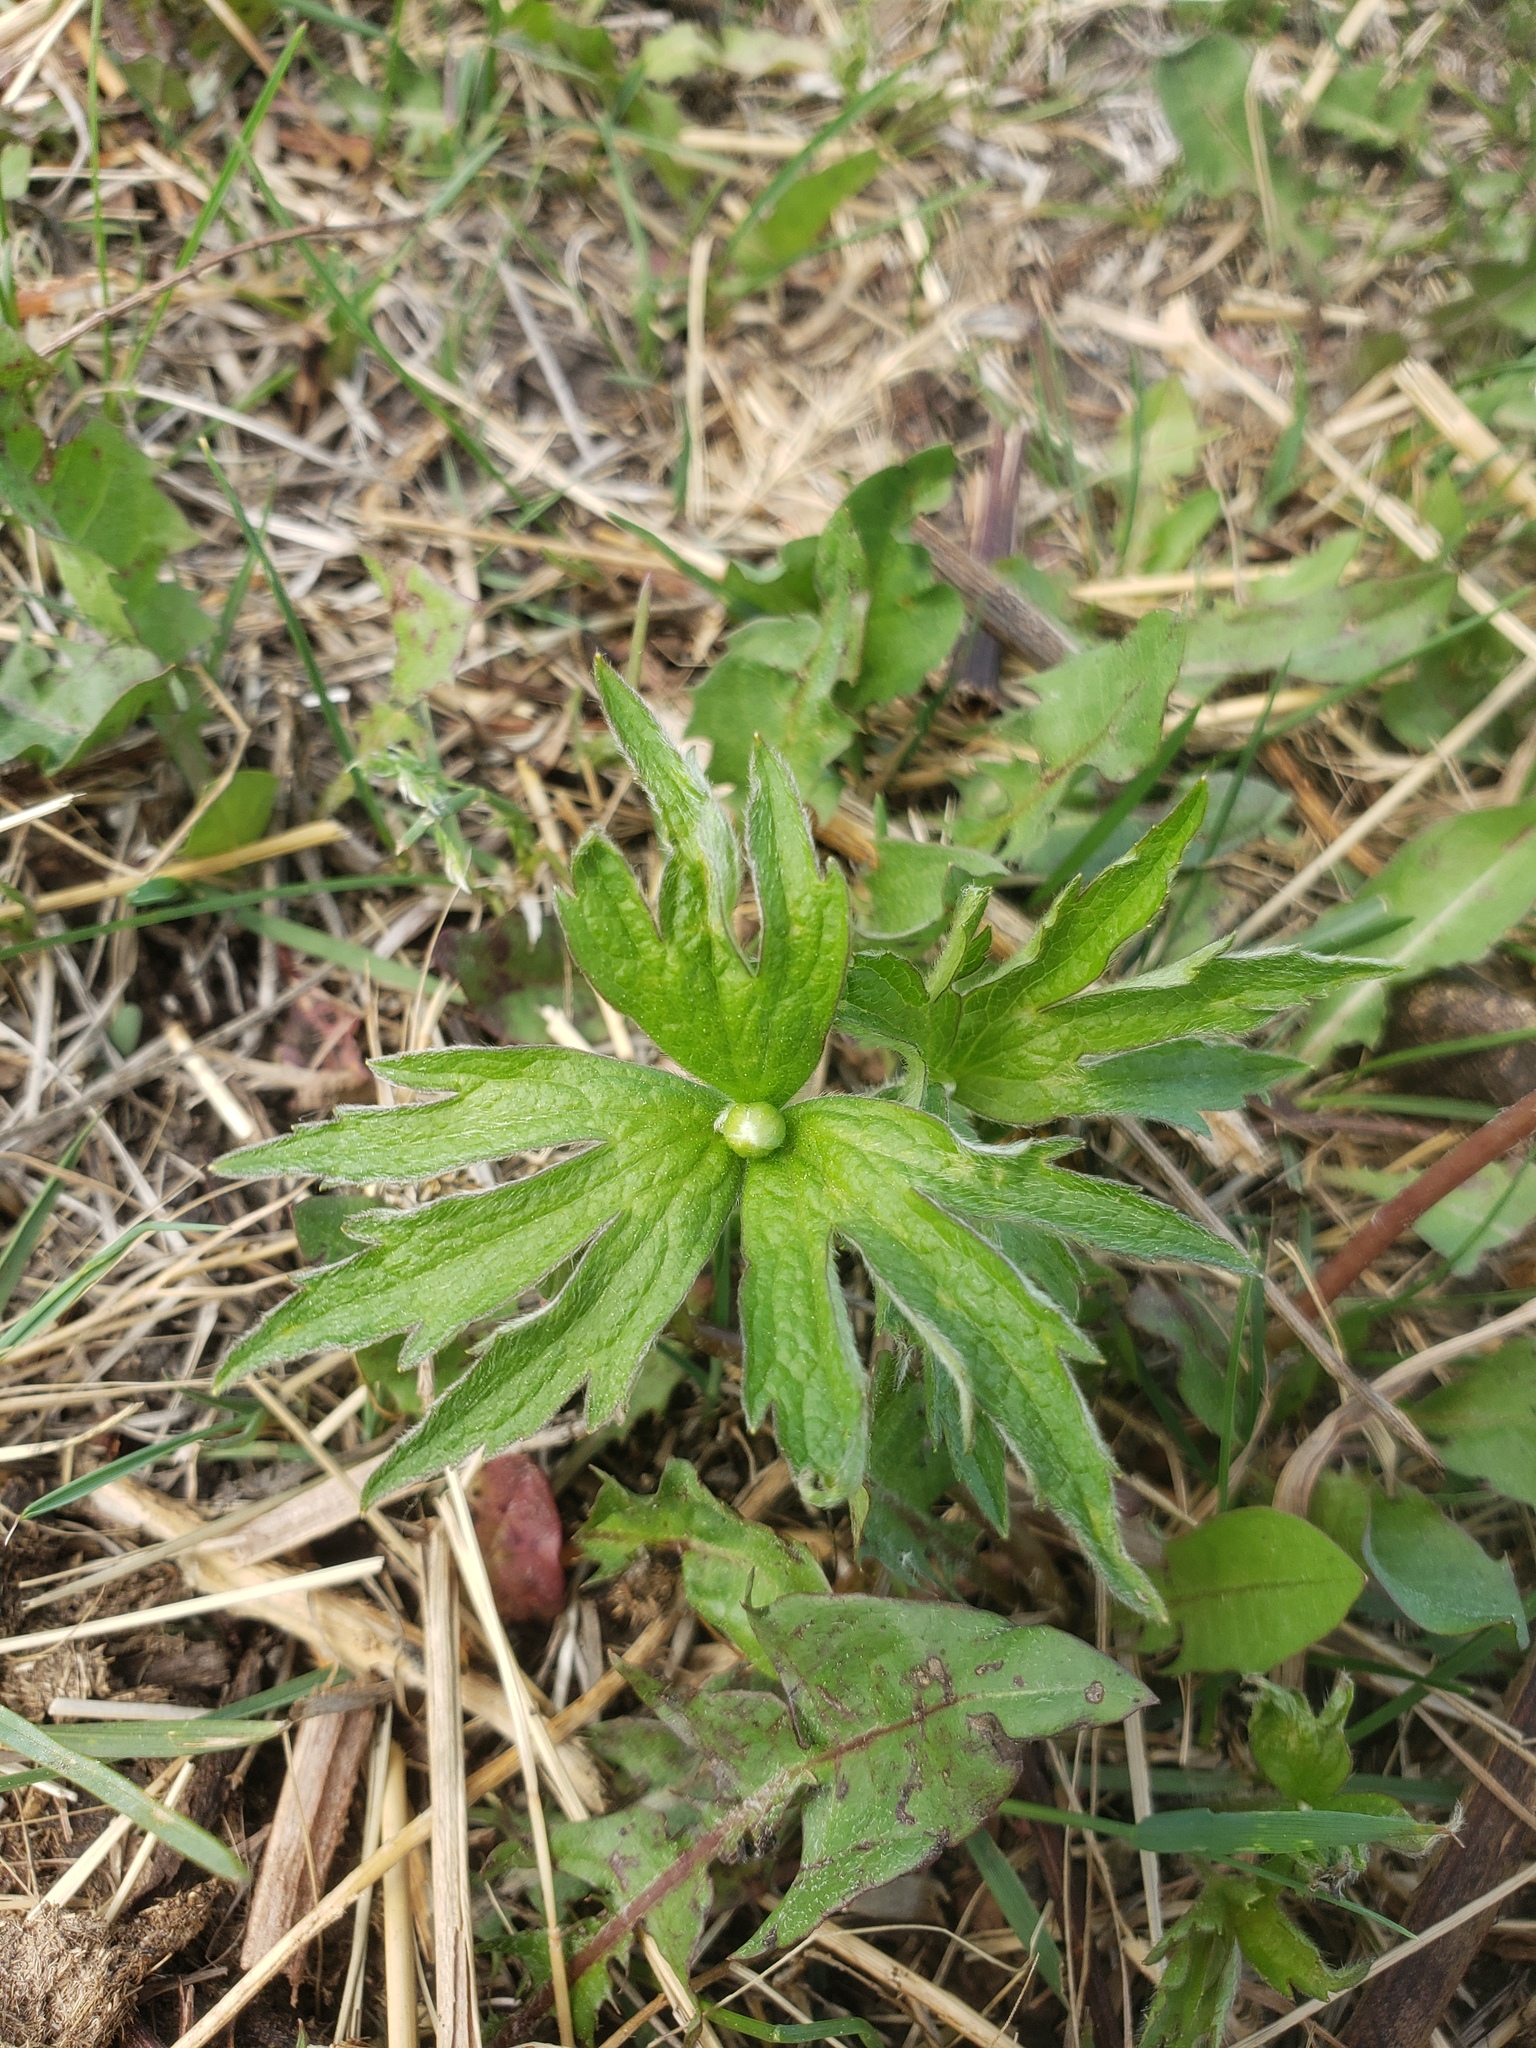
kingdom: Plantae
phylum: Tracheophyta
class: Magnoliopsida
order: Ranunculales
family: Ranunculaceae
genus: Anemonastrum
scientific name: Anemonastrum canadense
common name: Canada anemone
